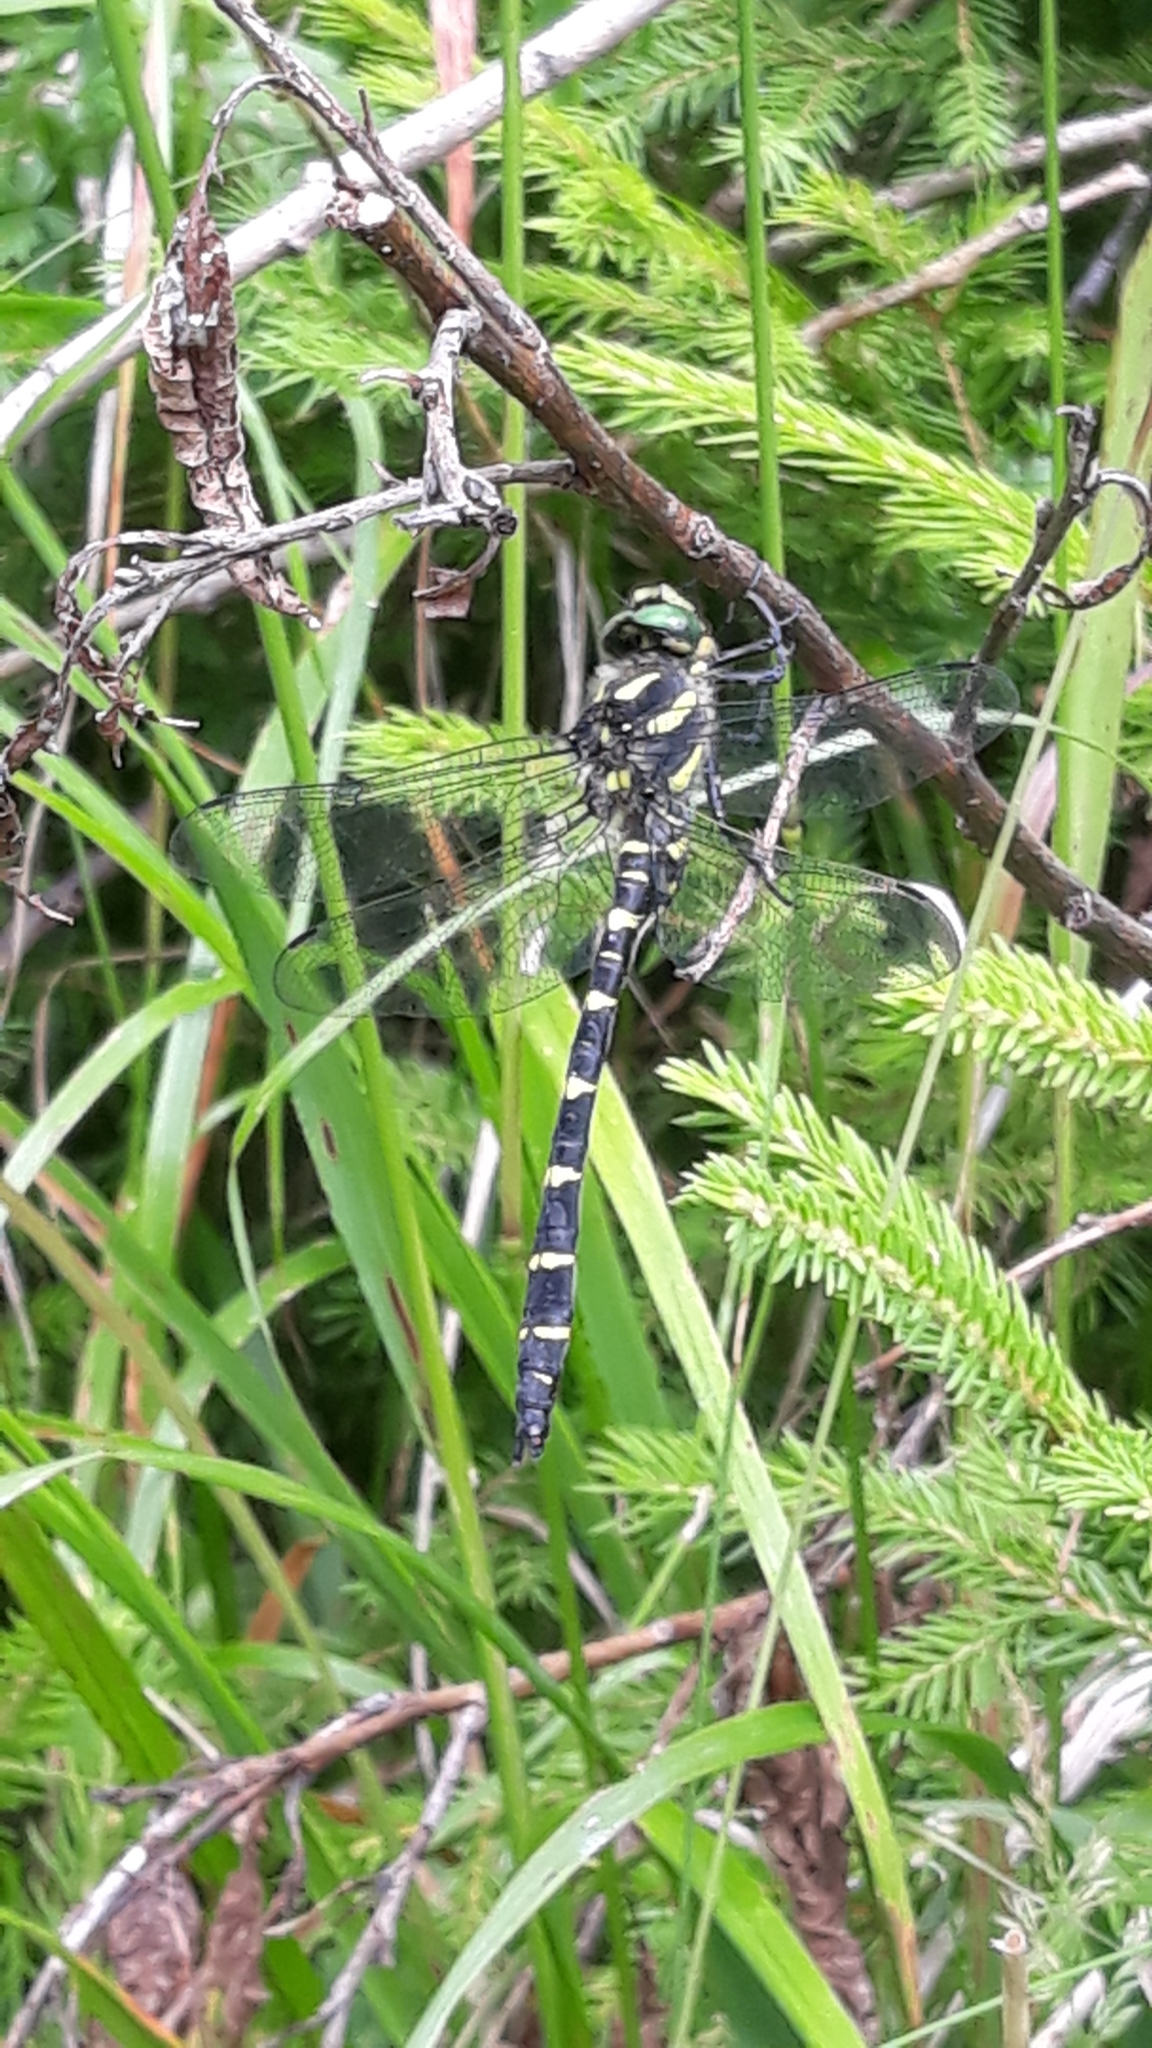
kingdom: Animalia
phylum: Arthropoda
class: Insecta
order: Odonata
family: Cordulegastridae
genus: Cordulegaster
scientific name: Cordulegaster bidentata
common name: Sombre goldenring
